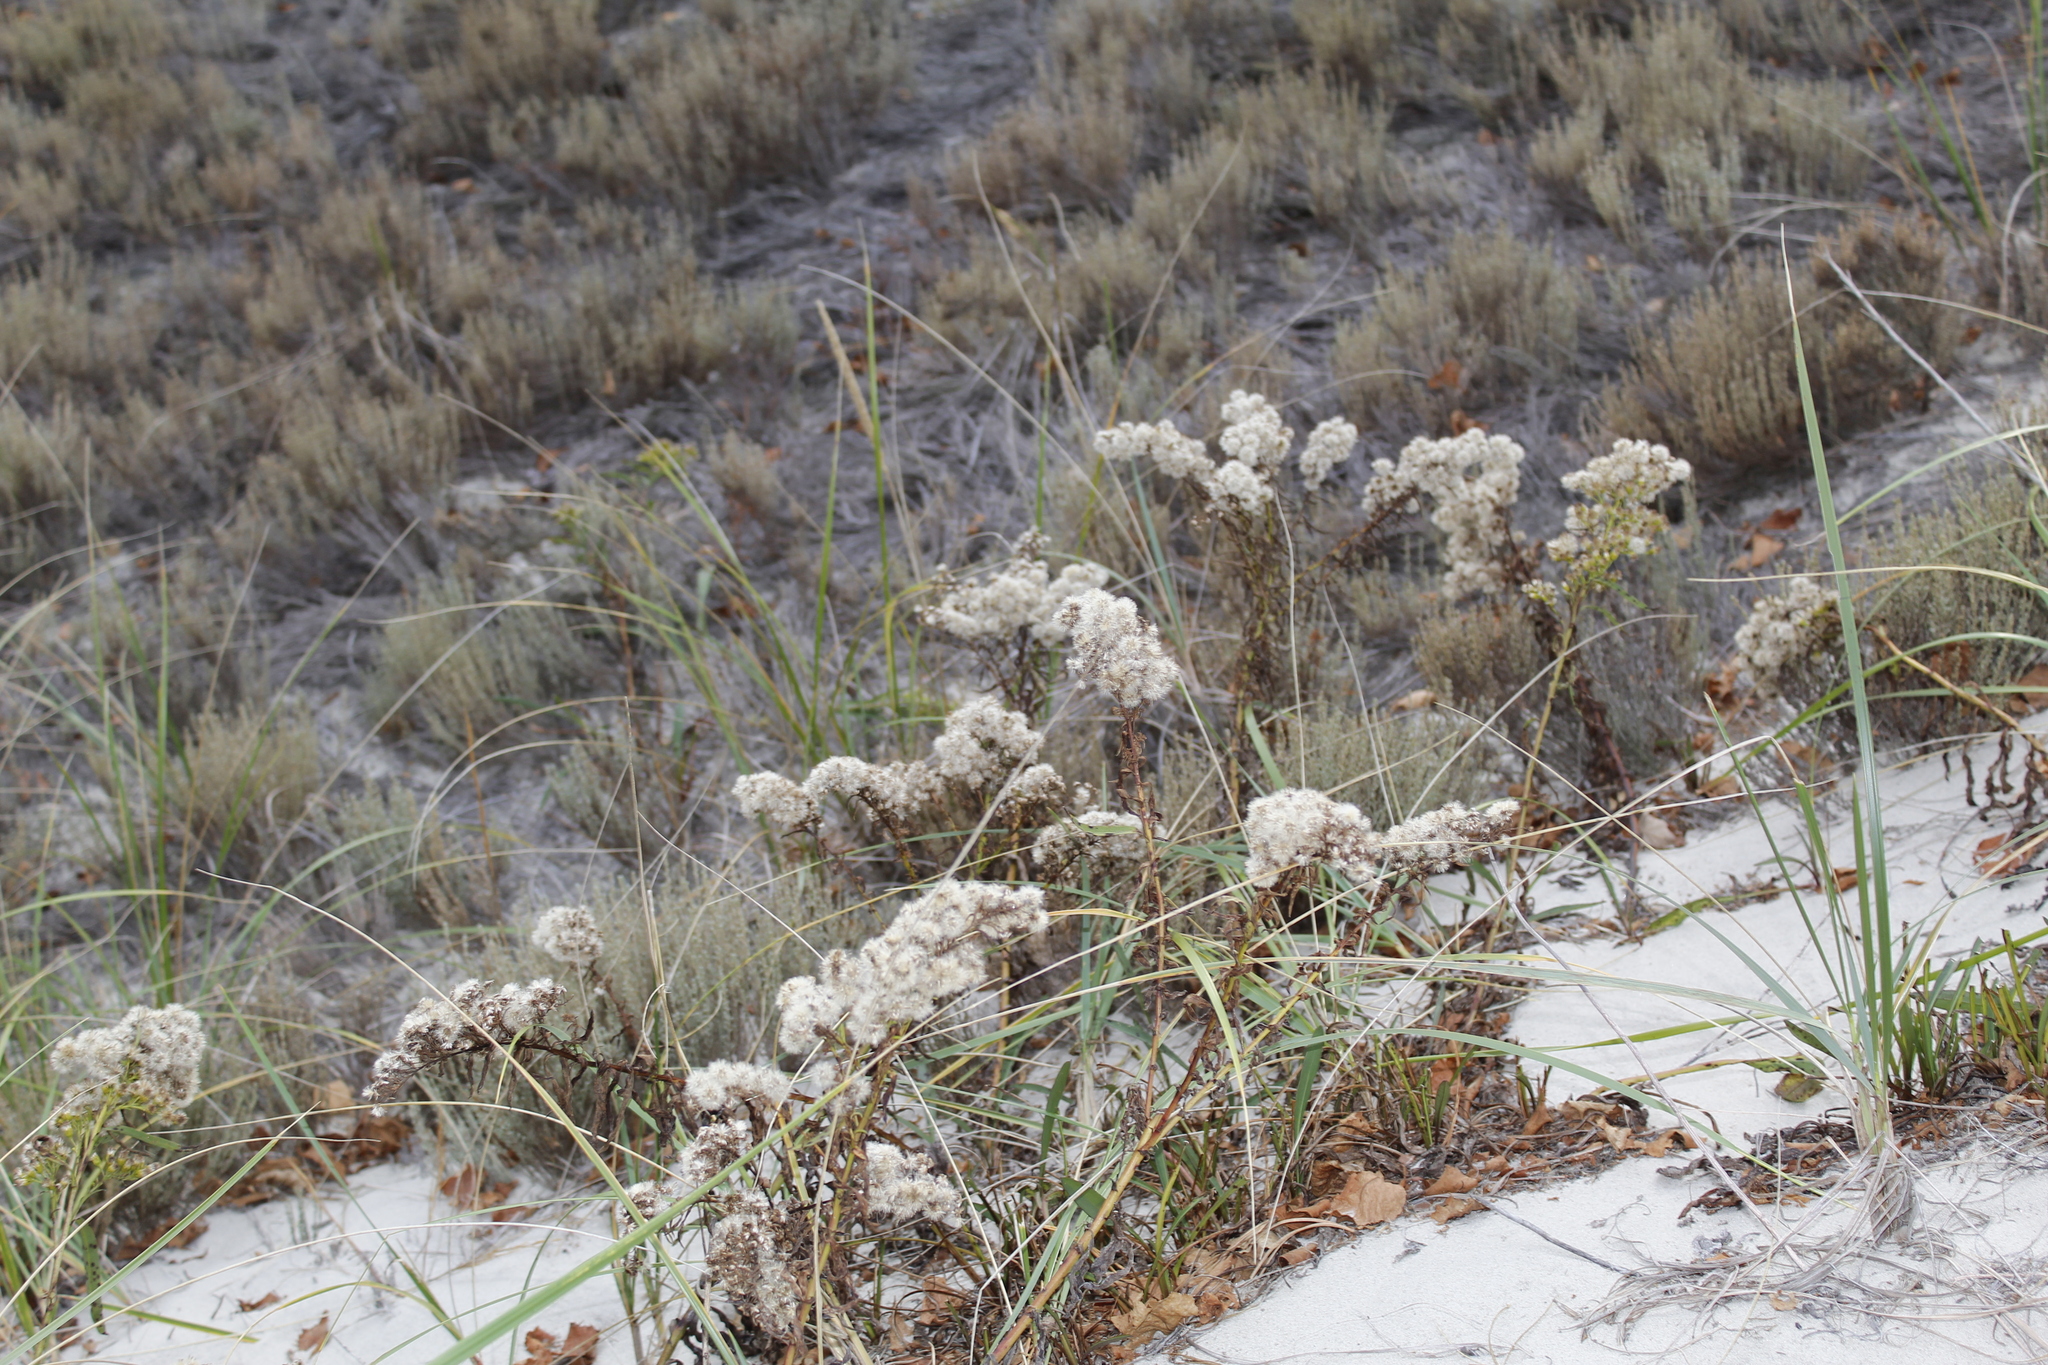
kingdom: Plantae
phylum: Tracheophyta
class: Magnoliopsida
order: Asterales
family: Asteraceae
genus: Solidago
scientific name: Solidago sempervirens
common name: Salt-marsh goldenrod
